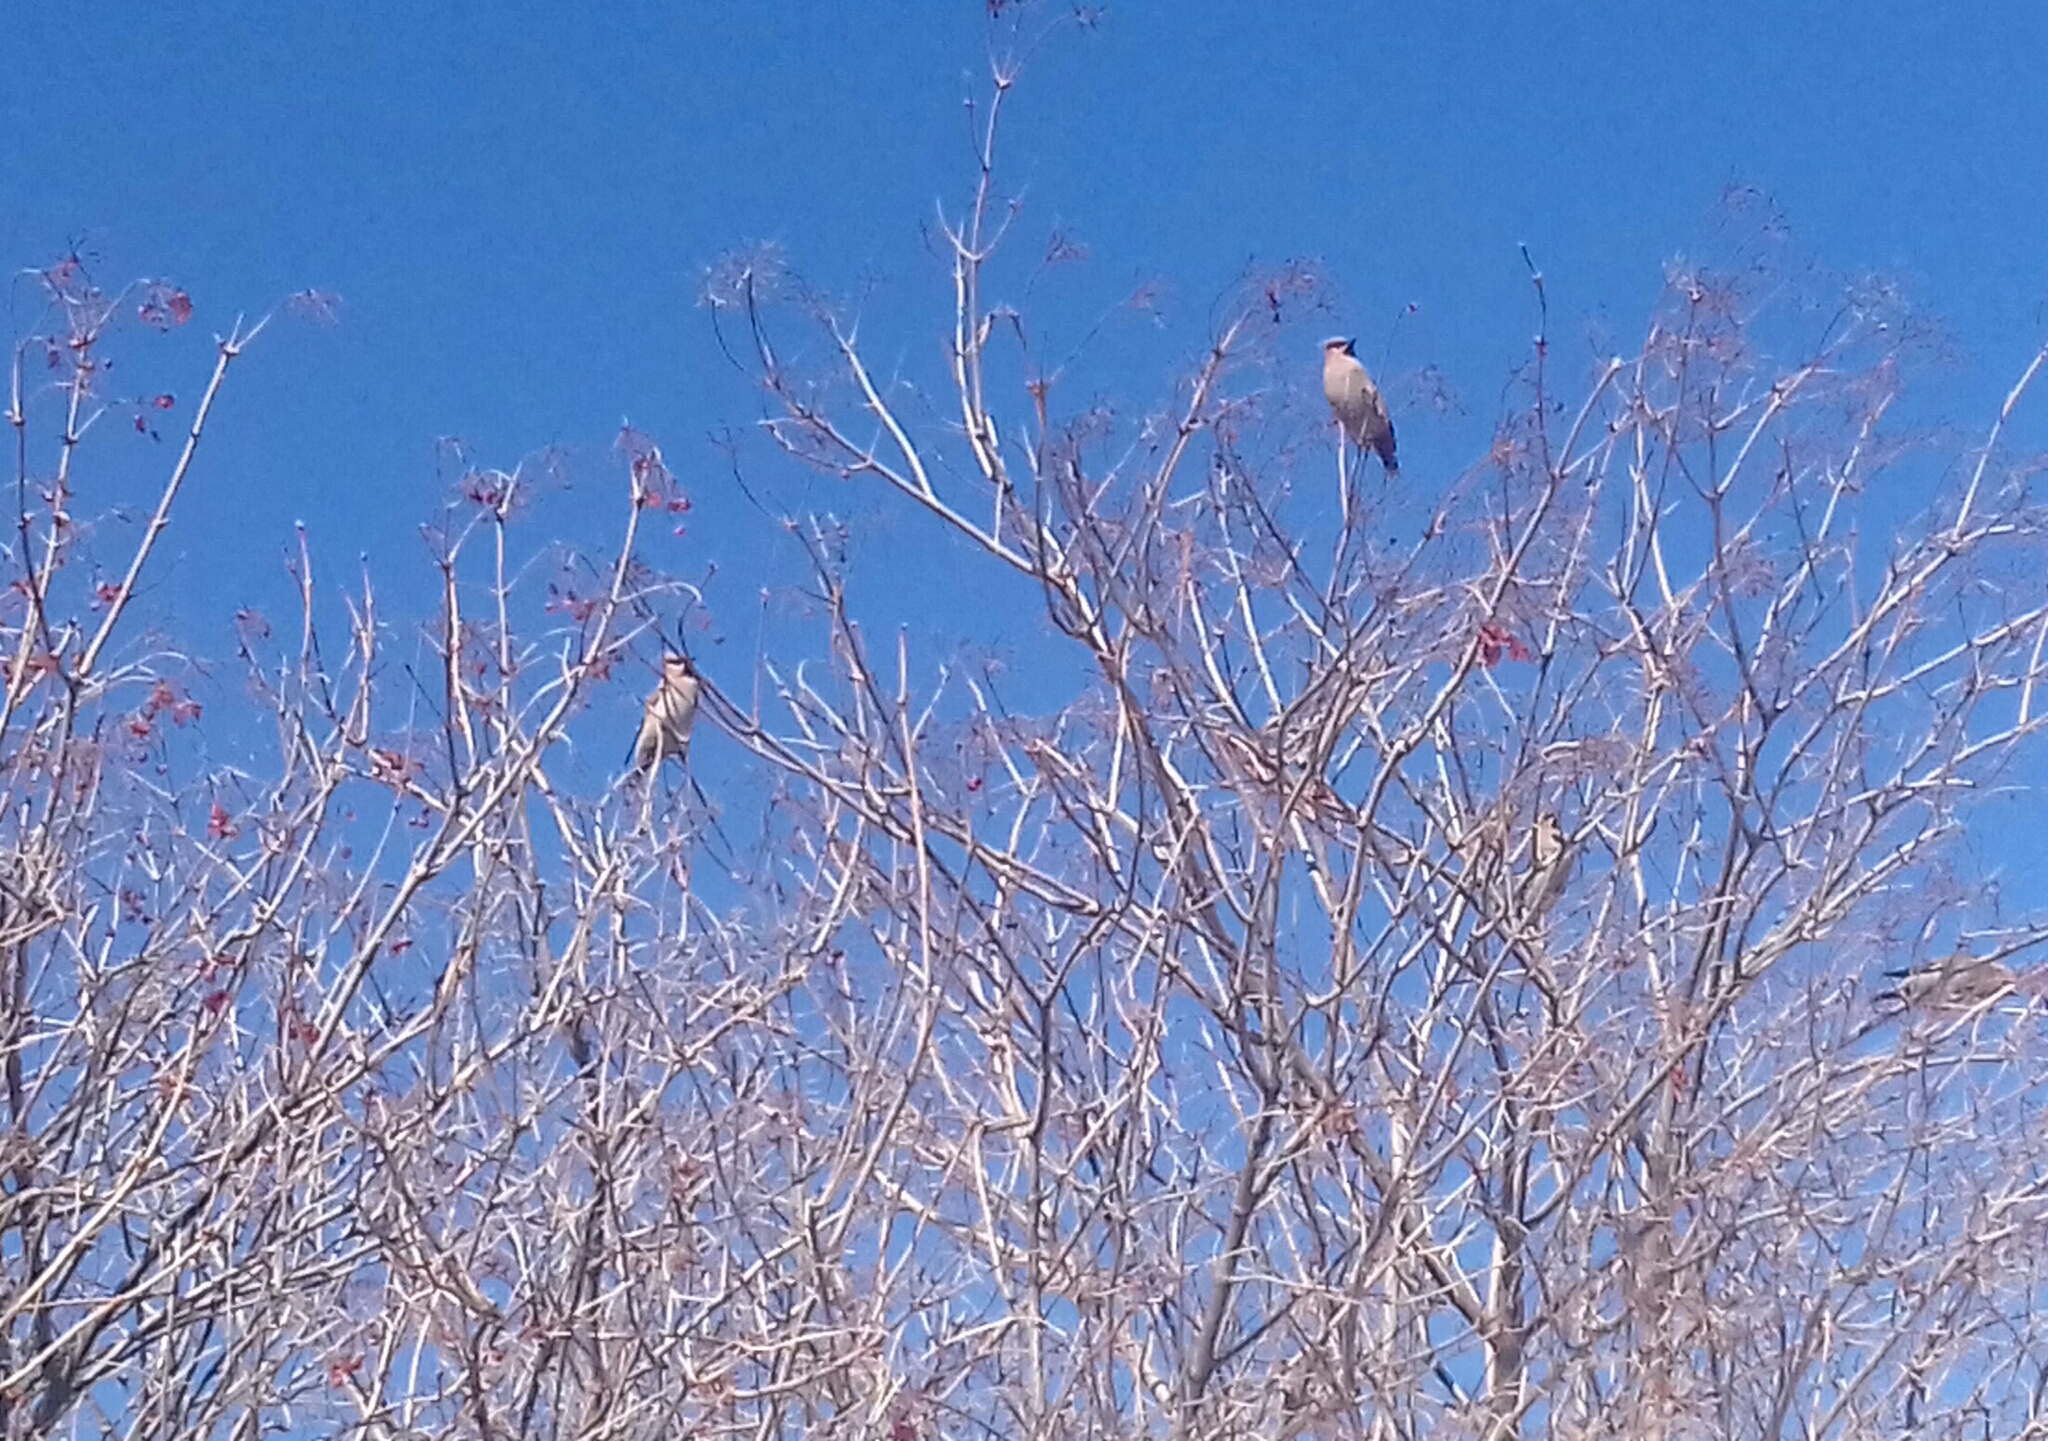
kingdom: Animalia
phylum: Chordata
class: Aves
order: Passeriformes
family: Bombycillidae
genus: Bombycilla
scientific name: Bombycilla garrulus
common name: Bohemian waxwing
